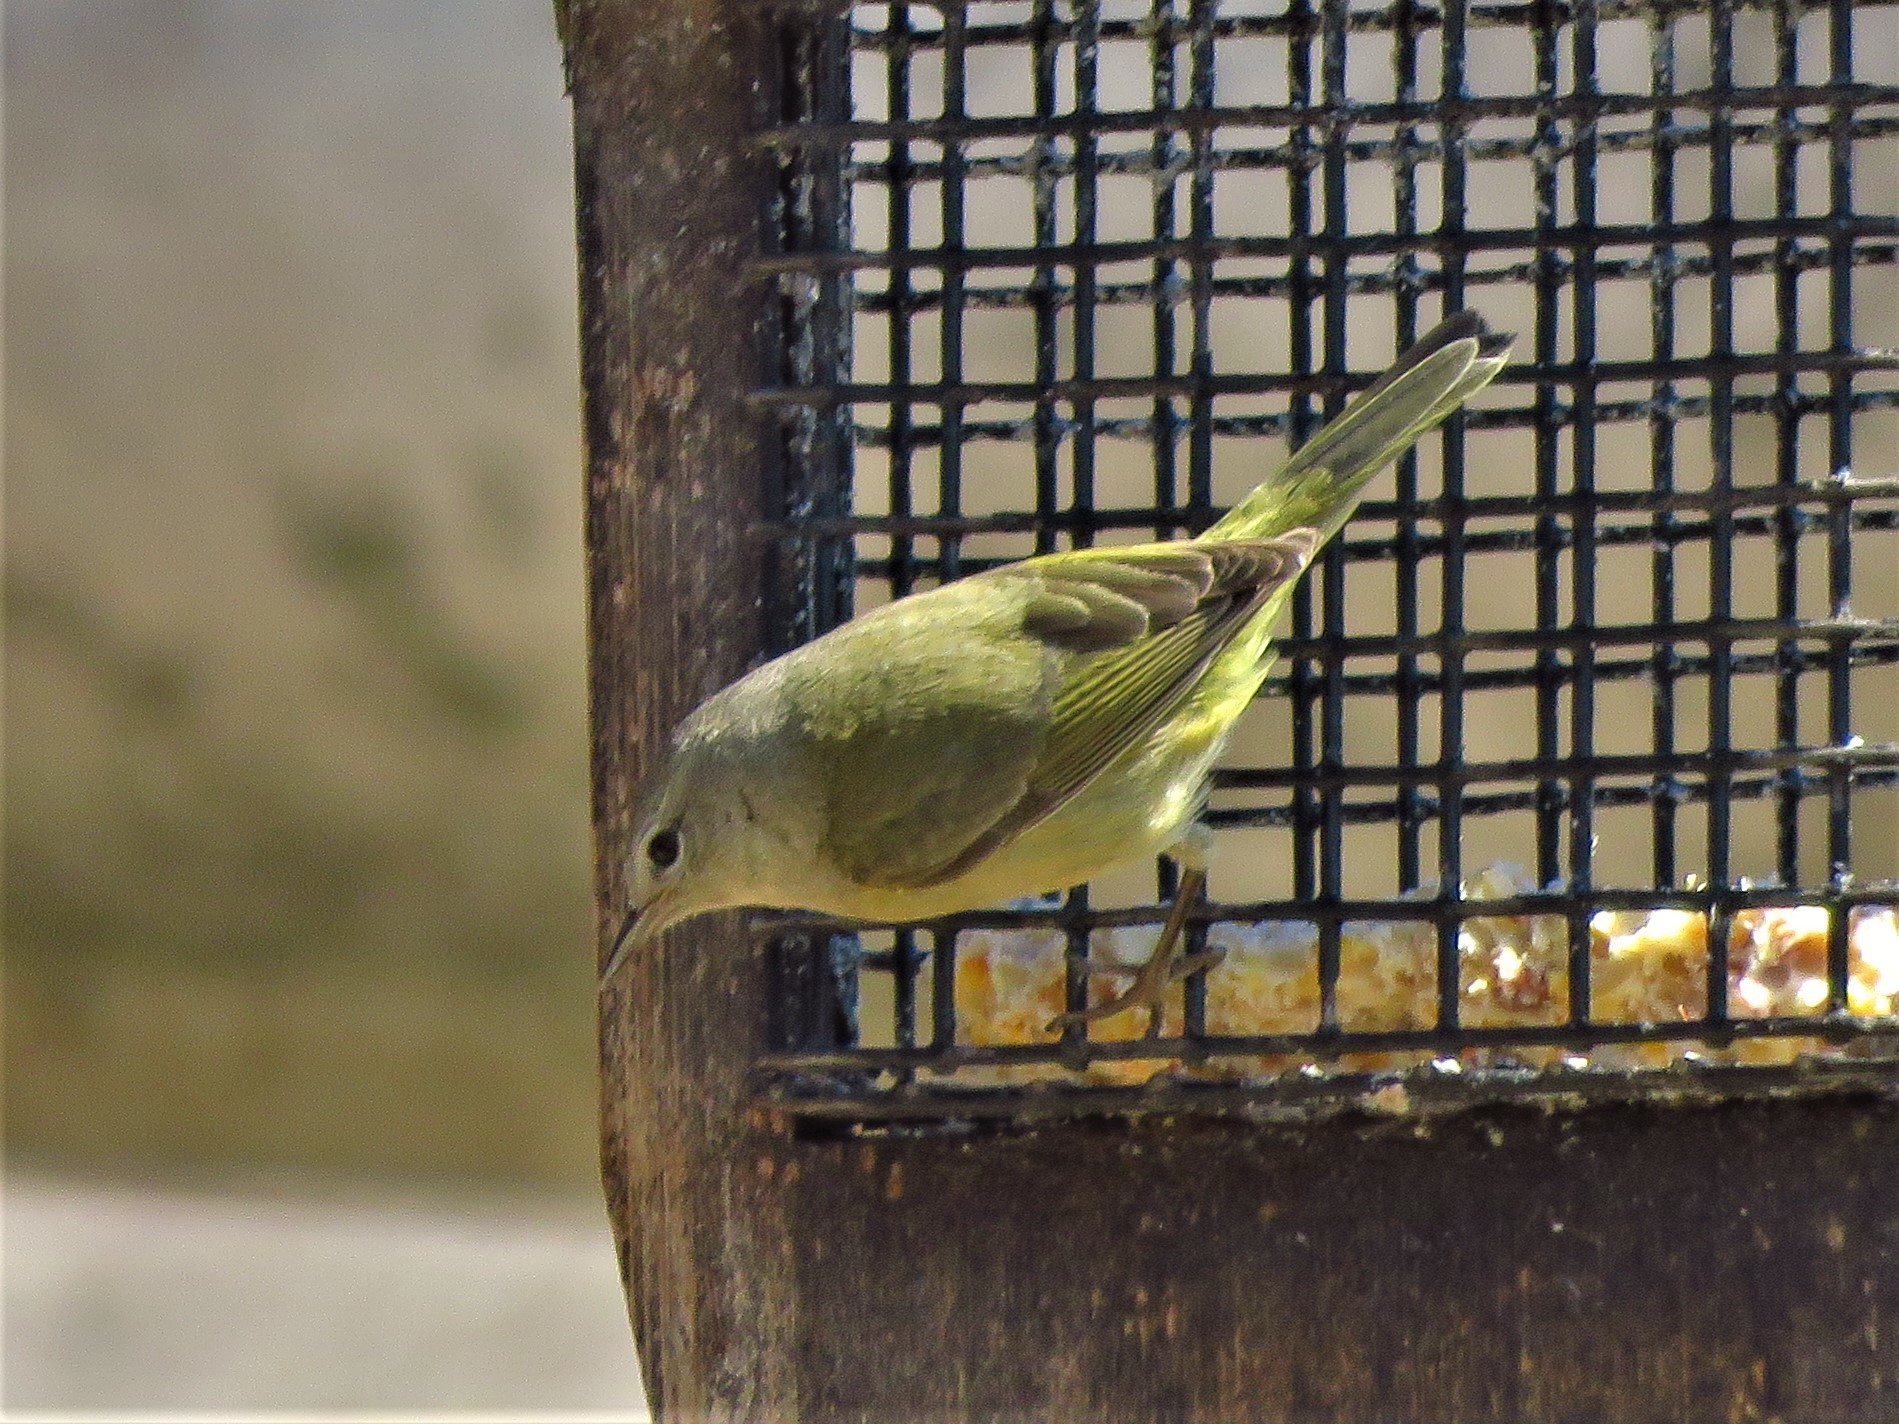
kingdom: Animalia
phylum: Chordata
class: Aves
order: Passeriformes
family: Parulidae
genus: Leiothlypis
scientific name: Leiothlypis celata
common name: Orange-crowned warbler
